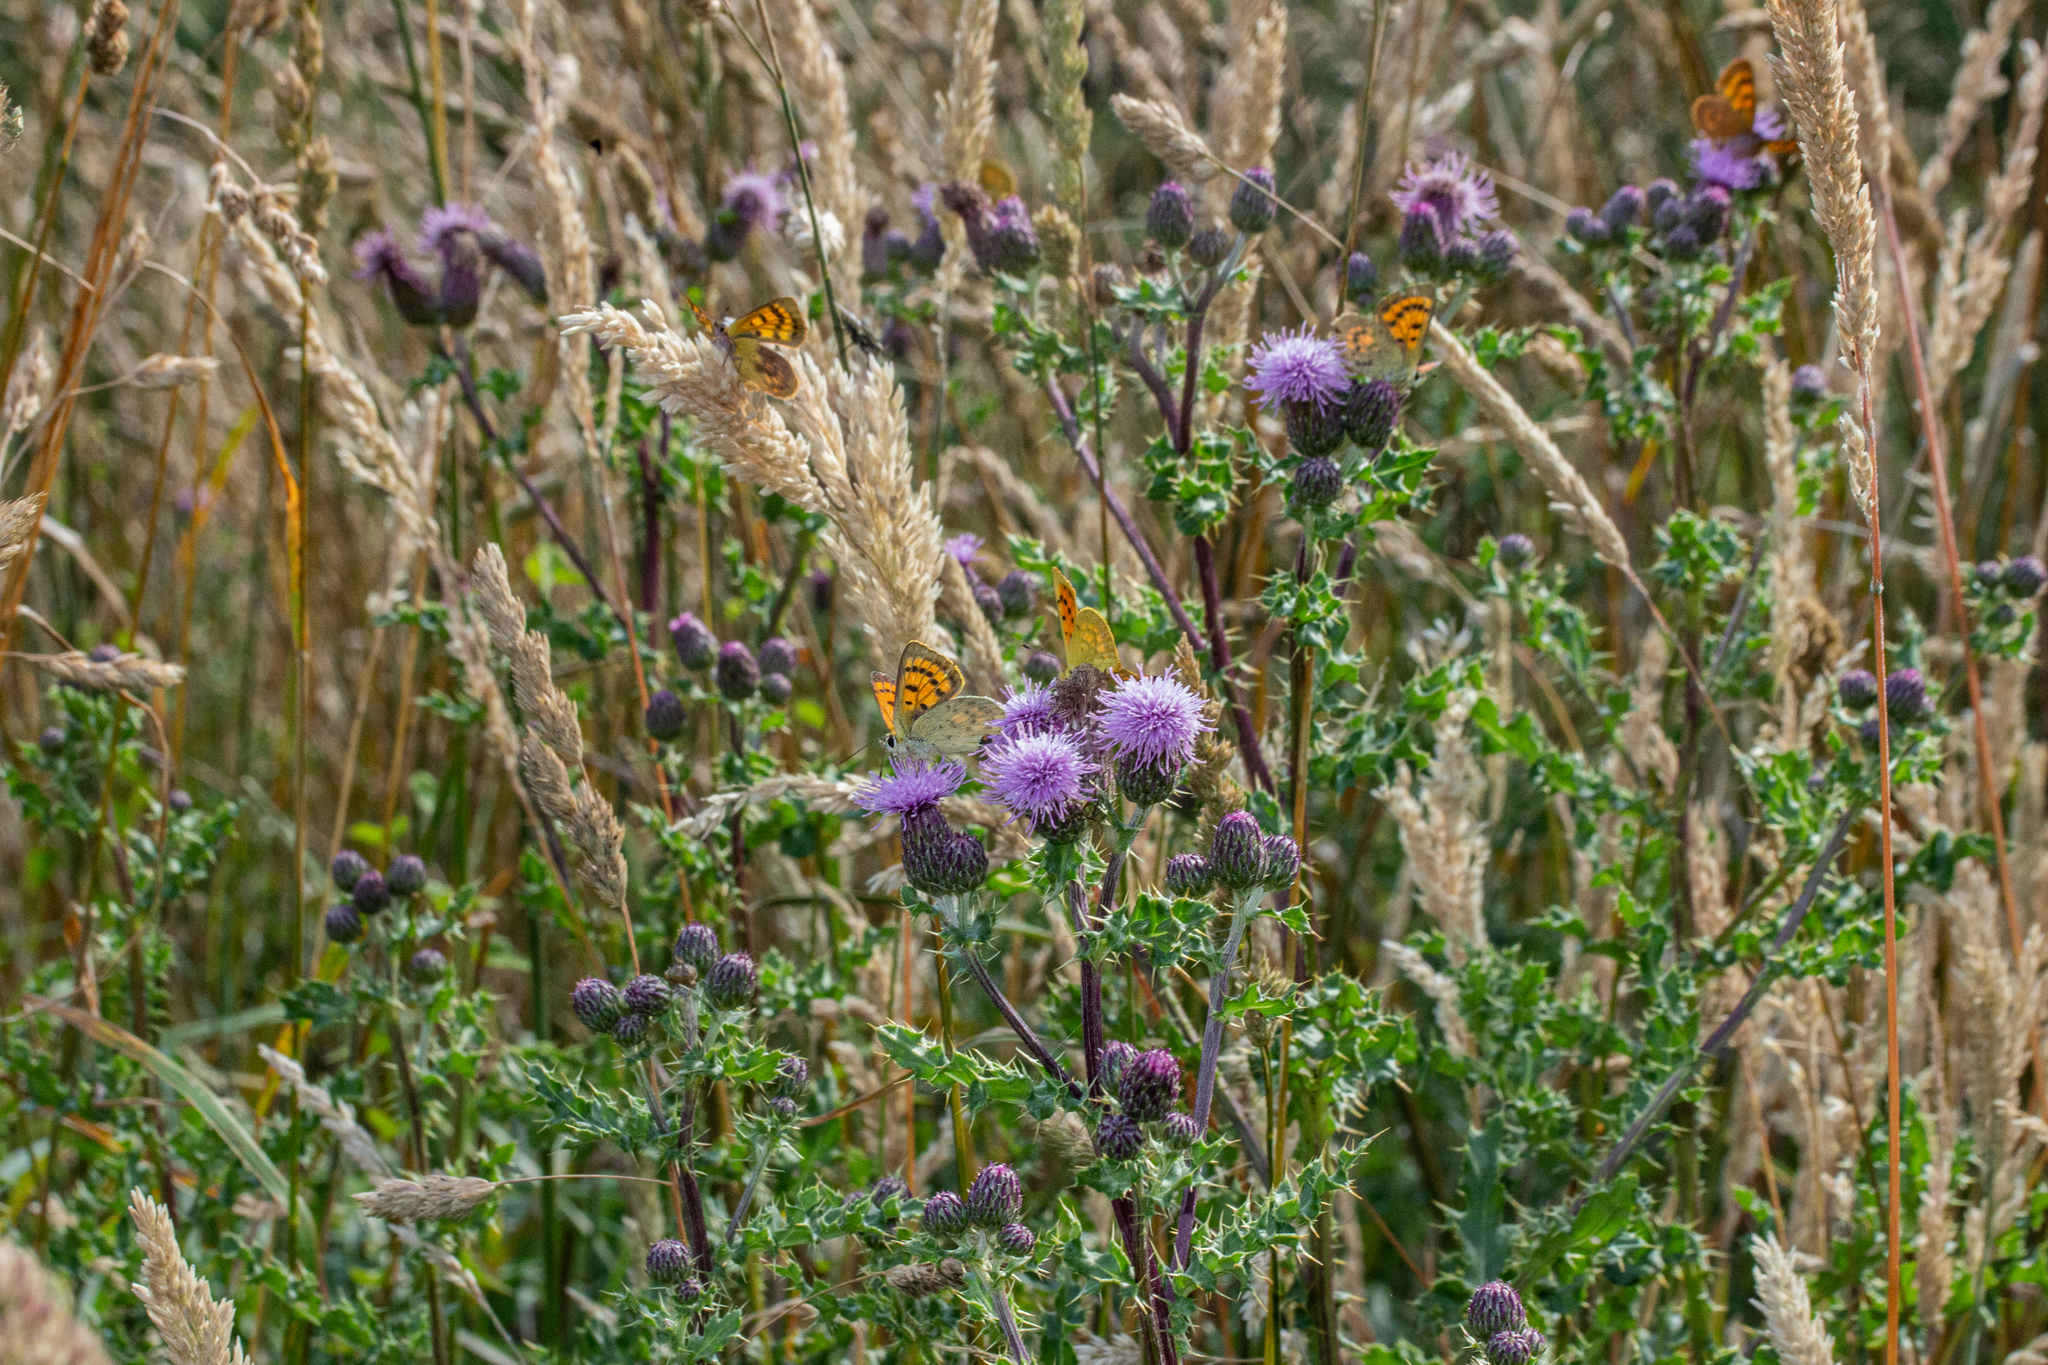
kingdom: Animalia
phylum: Arthropoda
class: Insecta
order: Lepidoptera
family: Lycaenidae
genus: Lycaena
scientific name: Lycaena
